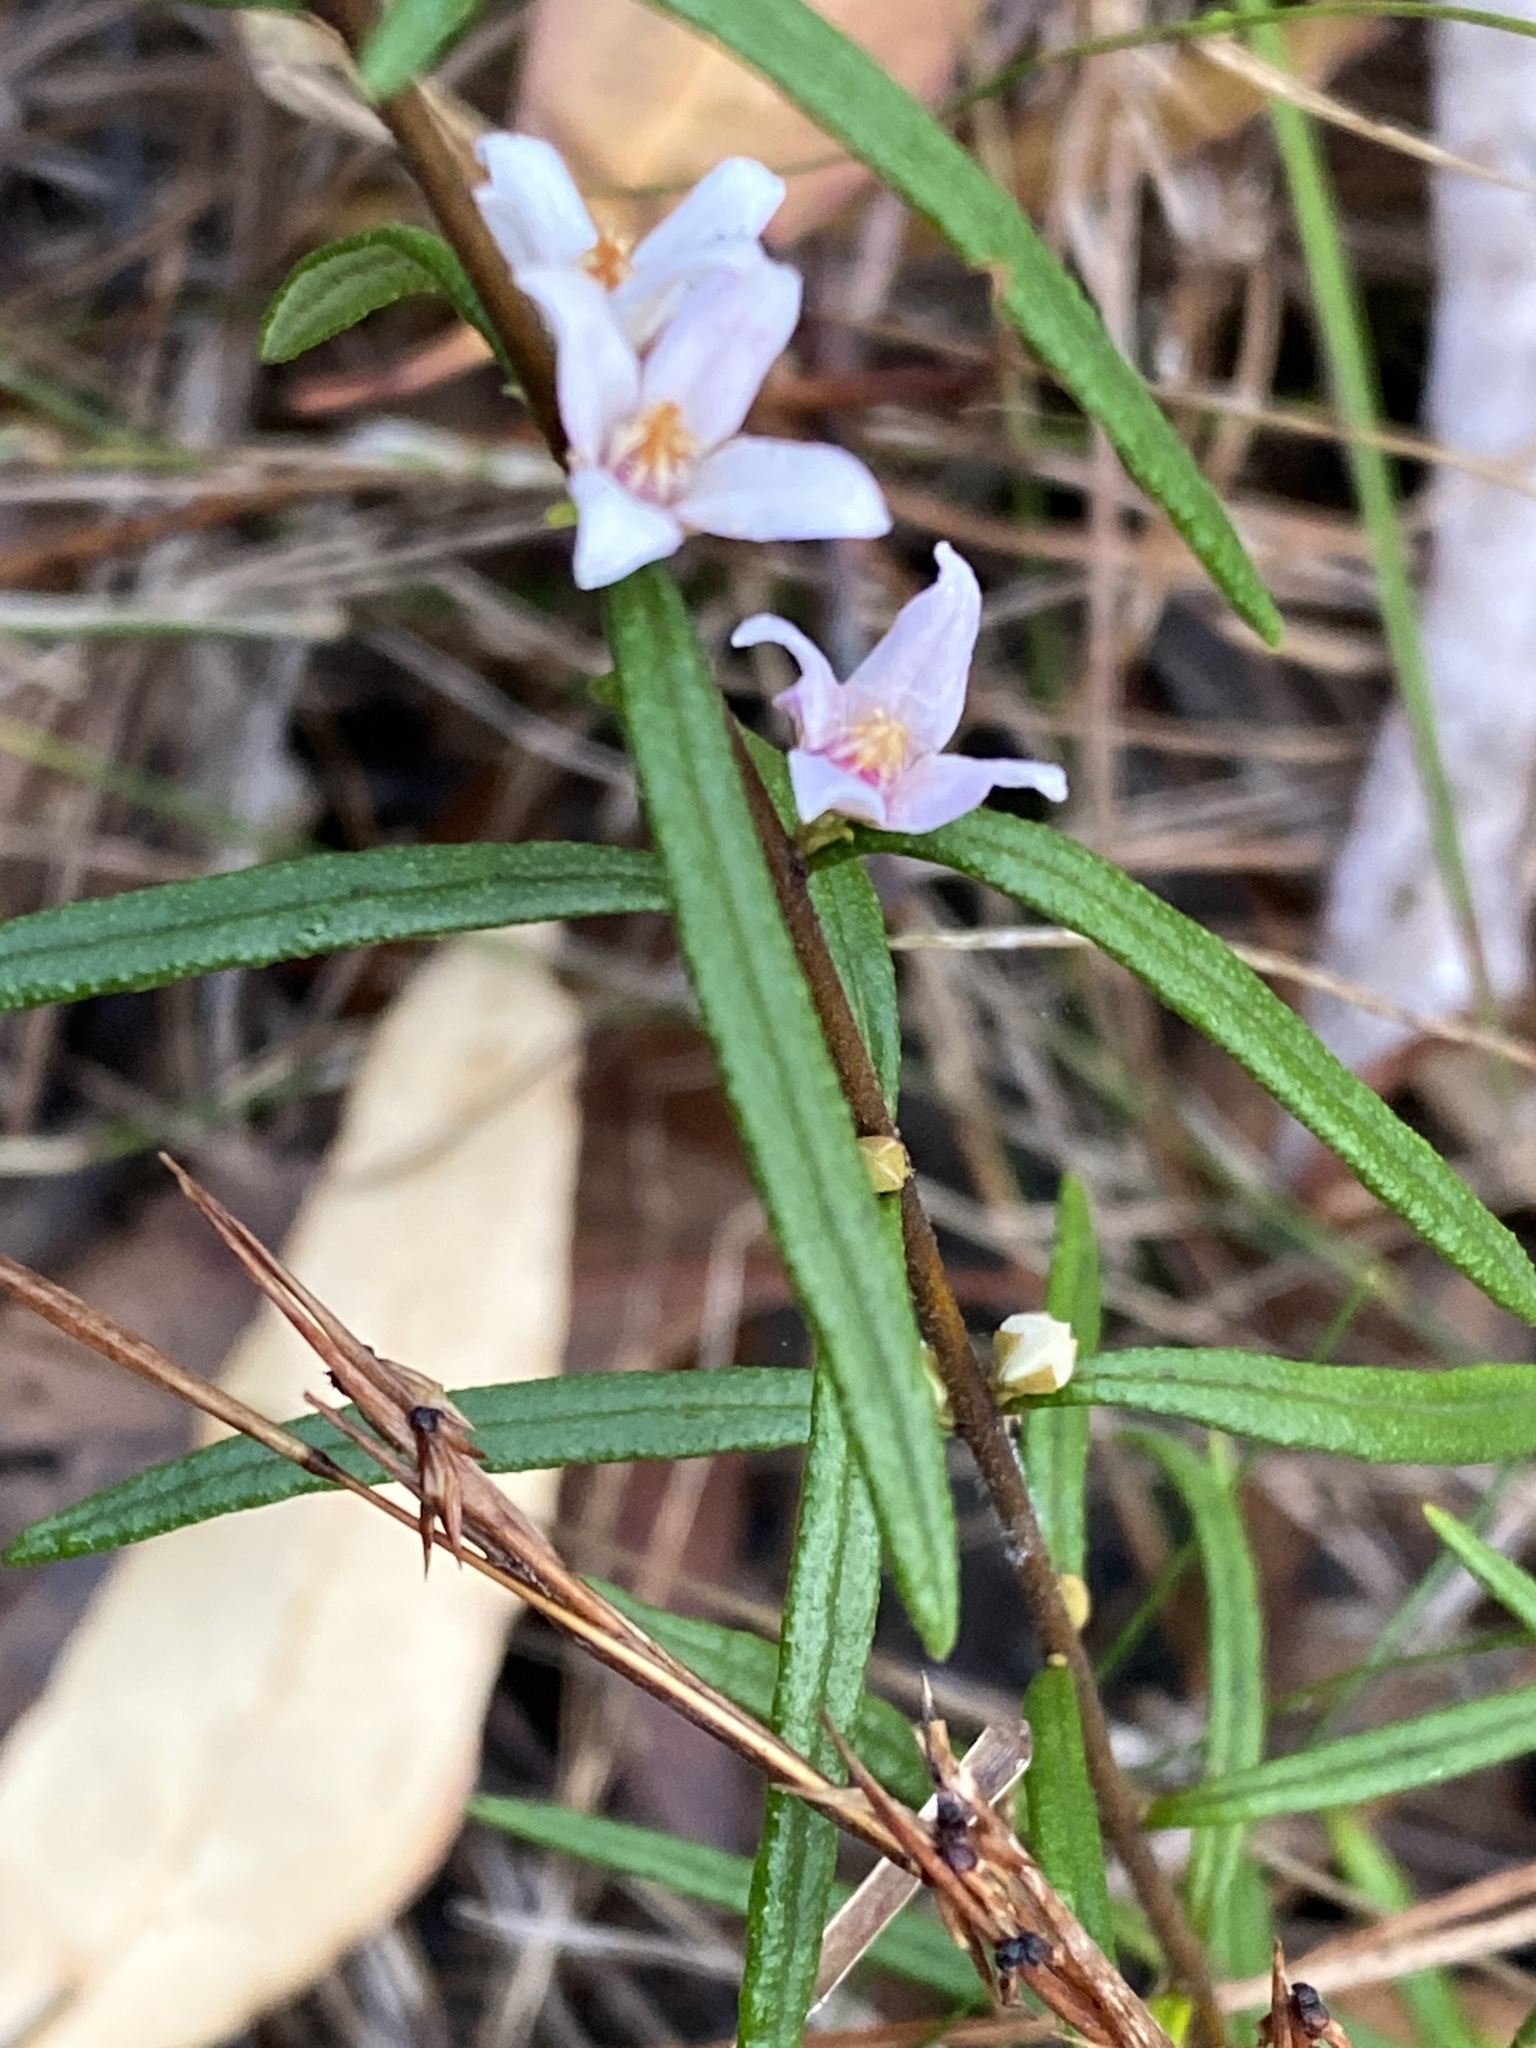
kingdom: Plantae
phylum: Tracheophyta
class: Magnoliopsida
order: Sapindales
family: Rutaceae
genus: Boronia
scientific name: Boronia rosmarinifolia
